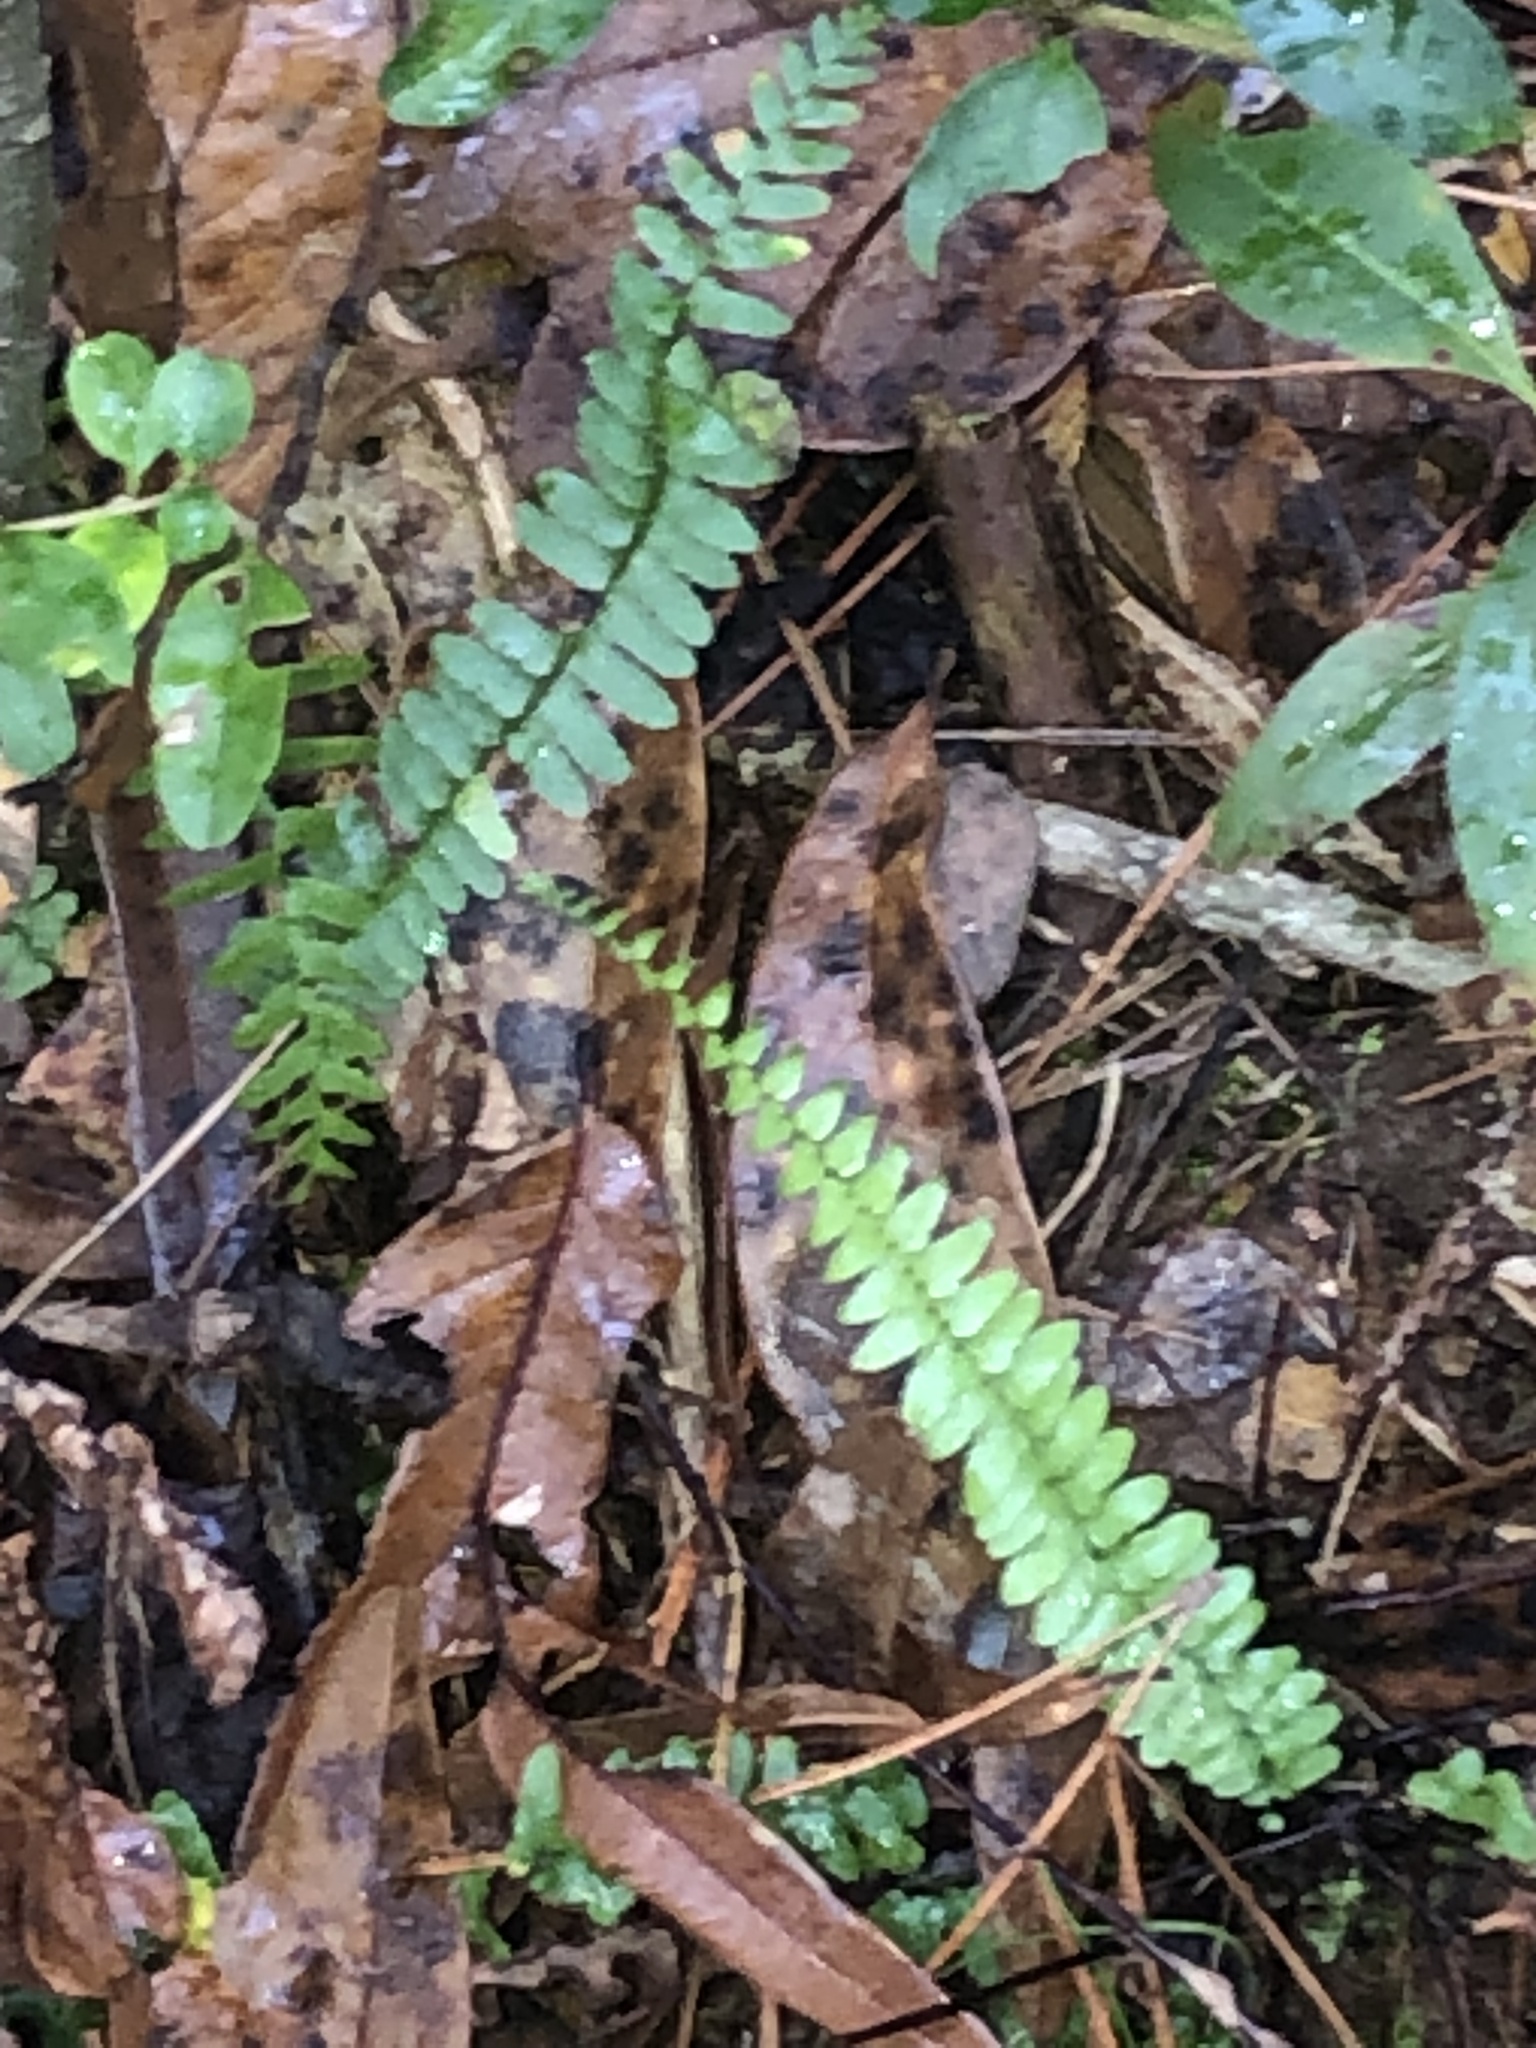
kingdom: Plantae
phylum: Tracheophyta
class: Polypodiopsida
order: Polypodiales
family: Aspleniaceae
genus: Asplenium
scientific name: Asplenium platyneuron
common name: Ebony spleenwort
